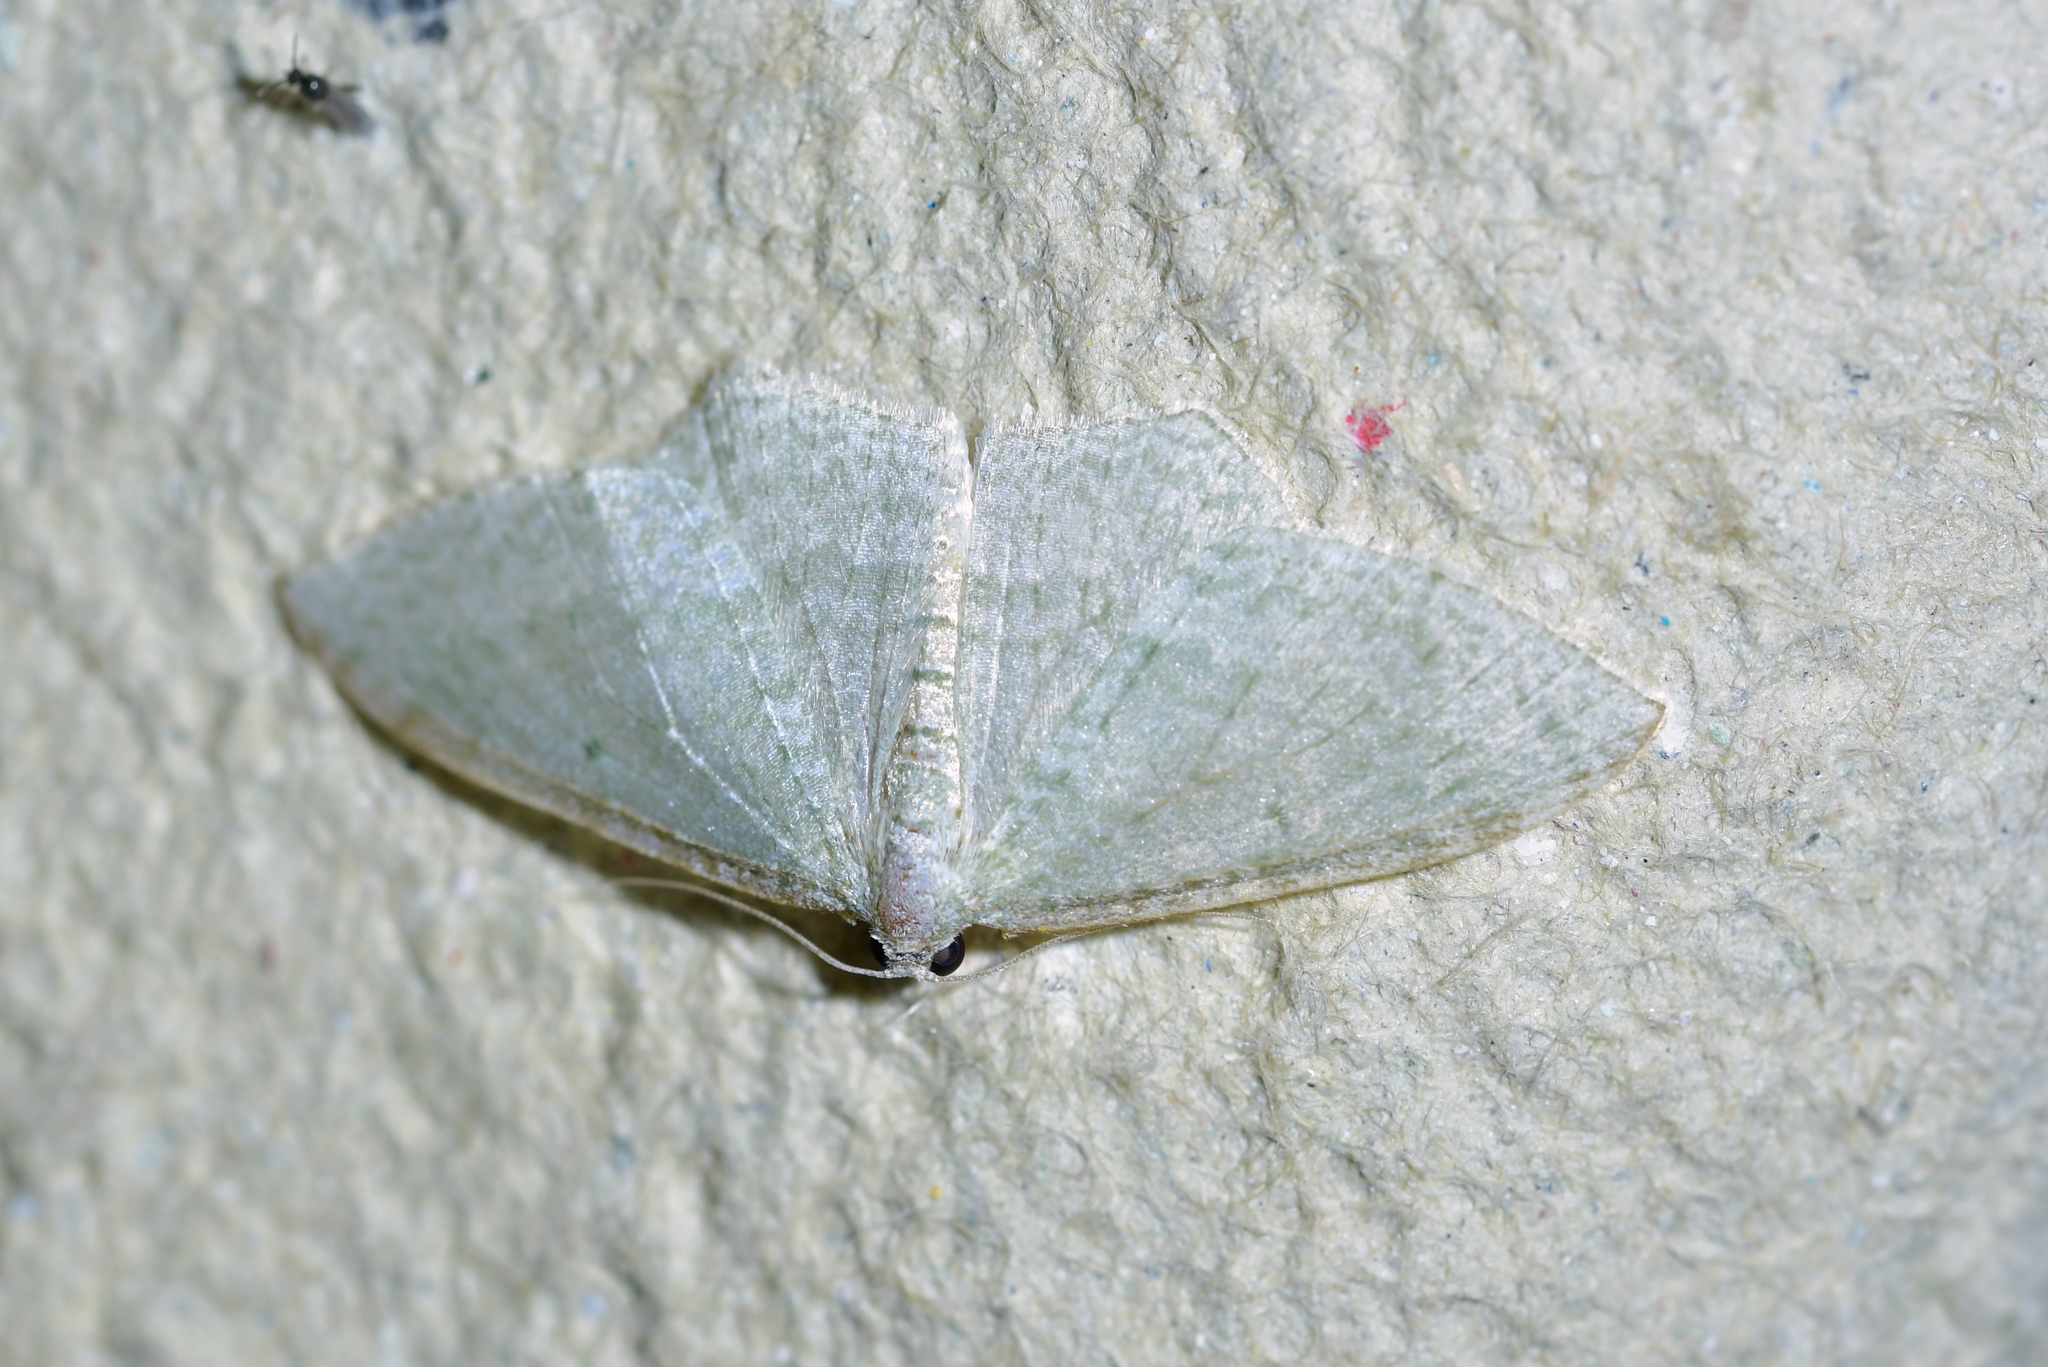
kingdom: Animalia
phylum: Arthropoda
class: Insecta
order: Lepidoptera
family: Geometridae
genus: Poecilasthena
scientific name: Poecilasthena pulchraria
